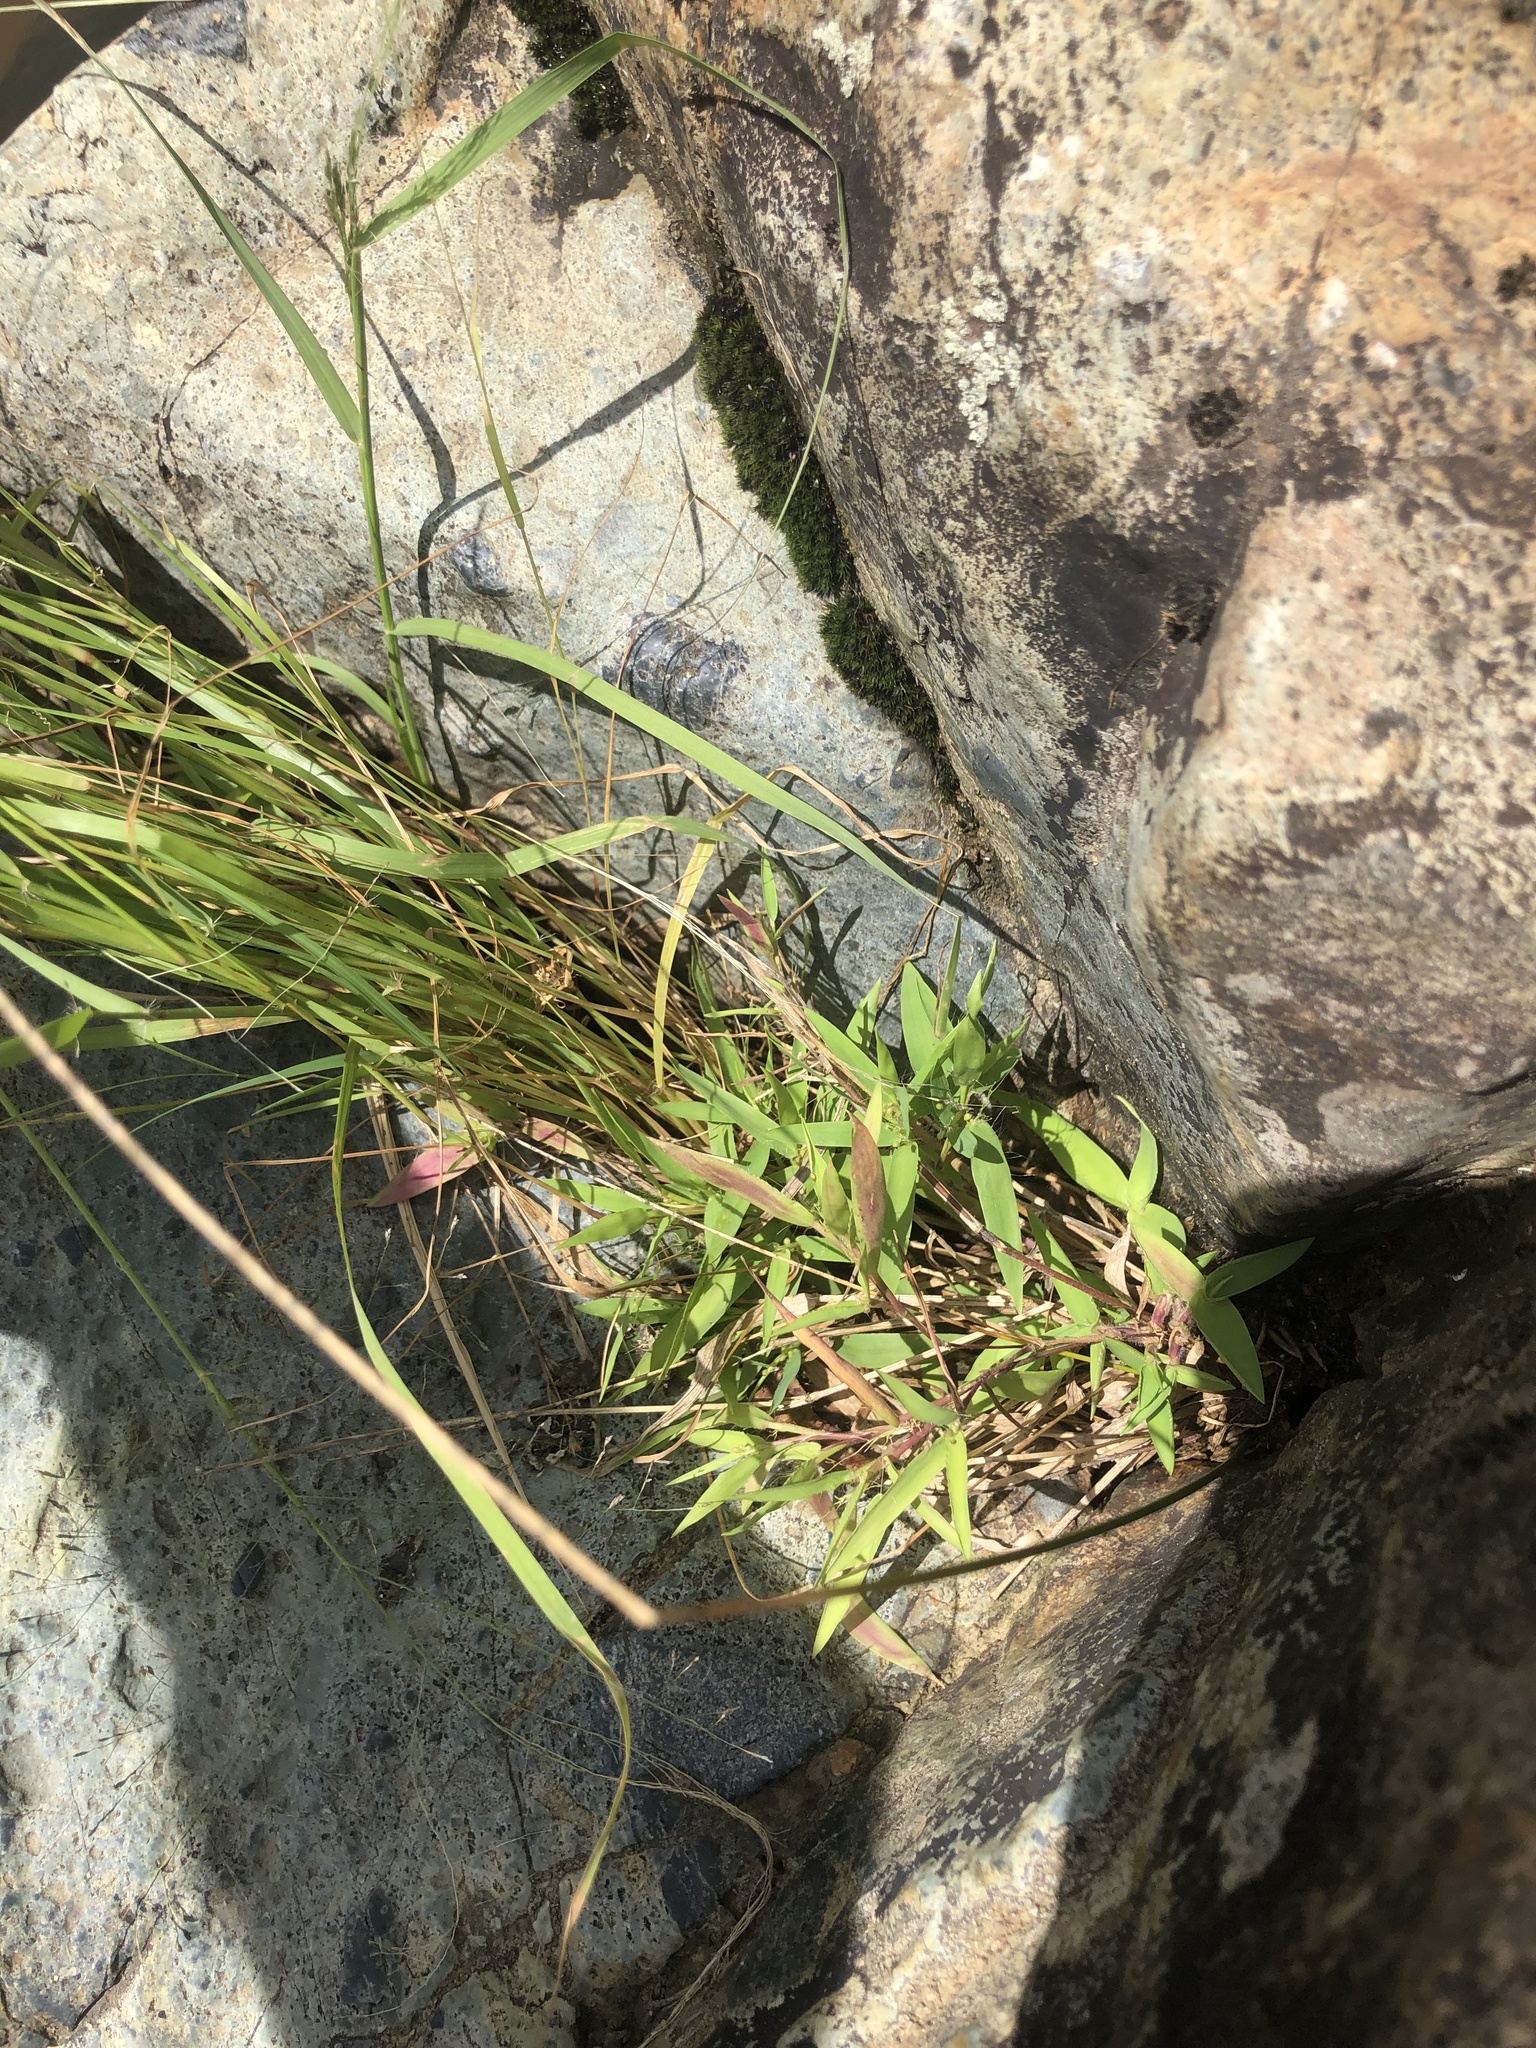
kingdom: Plantae
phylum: Tracheophyta
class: Liliopsida
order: Poales
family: Poaceae
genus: Eragrostis
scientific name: Eragrostis pectinacea
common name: Tufted lovegrass
